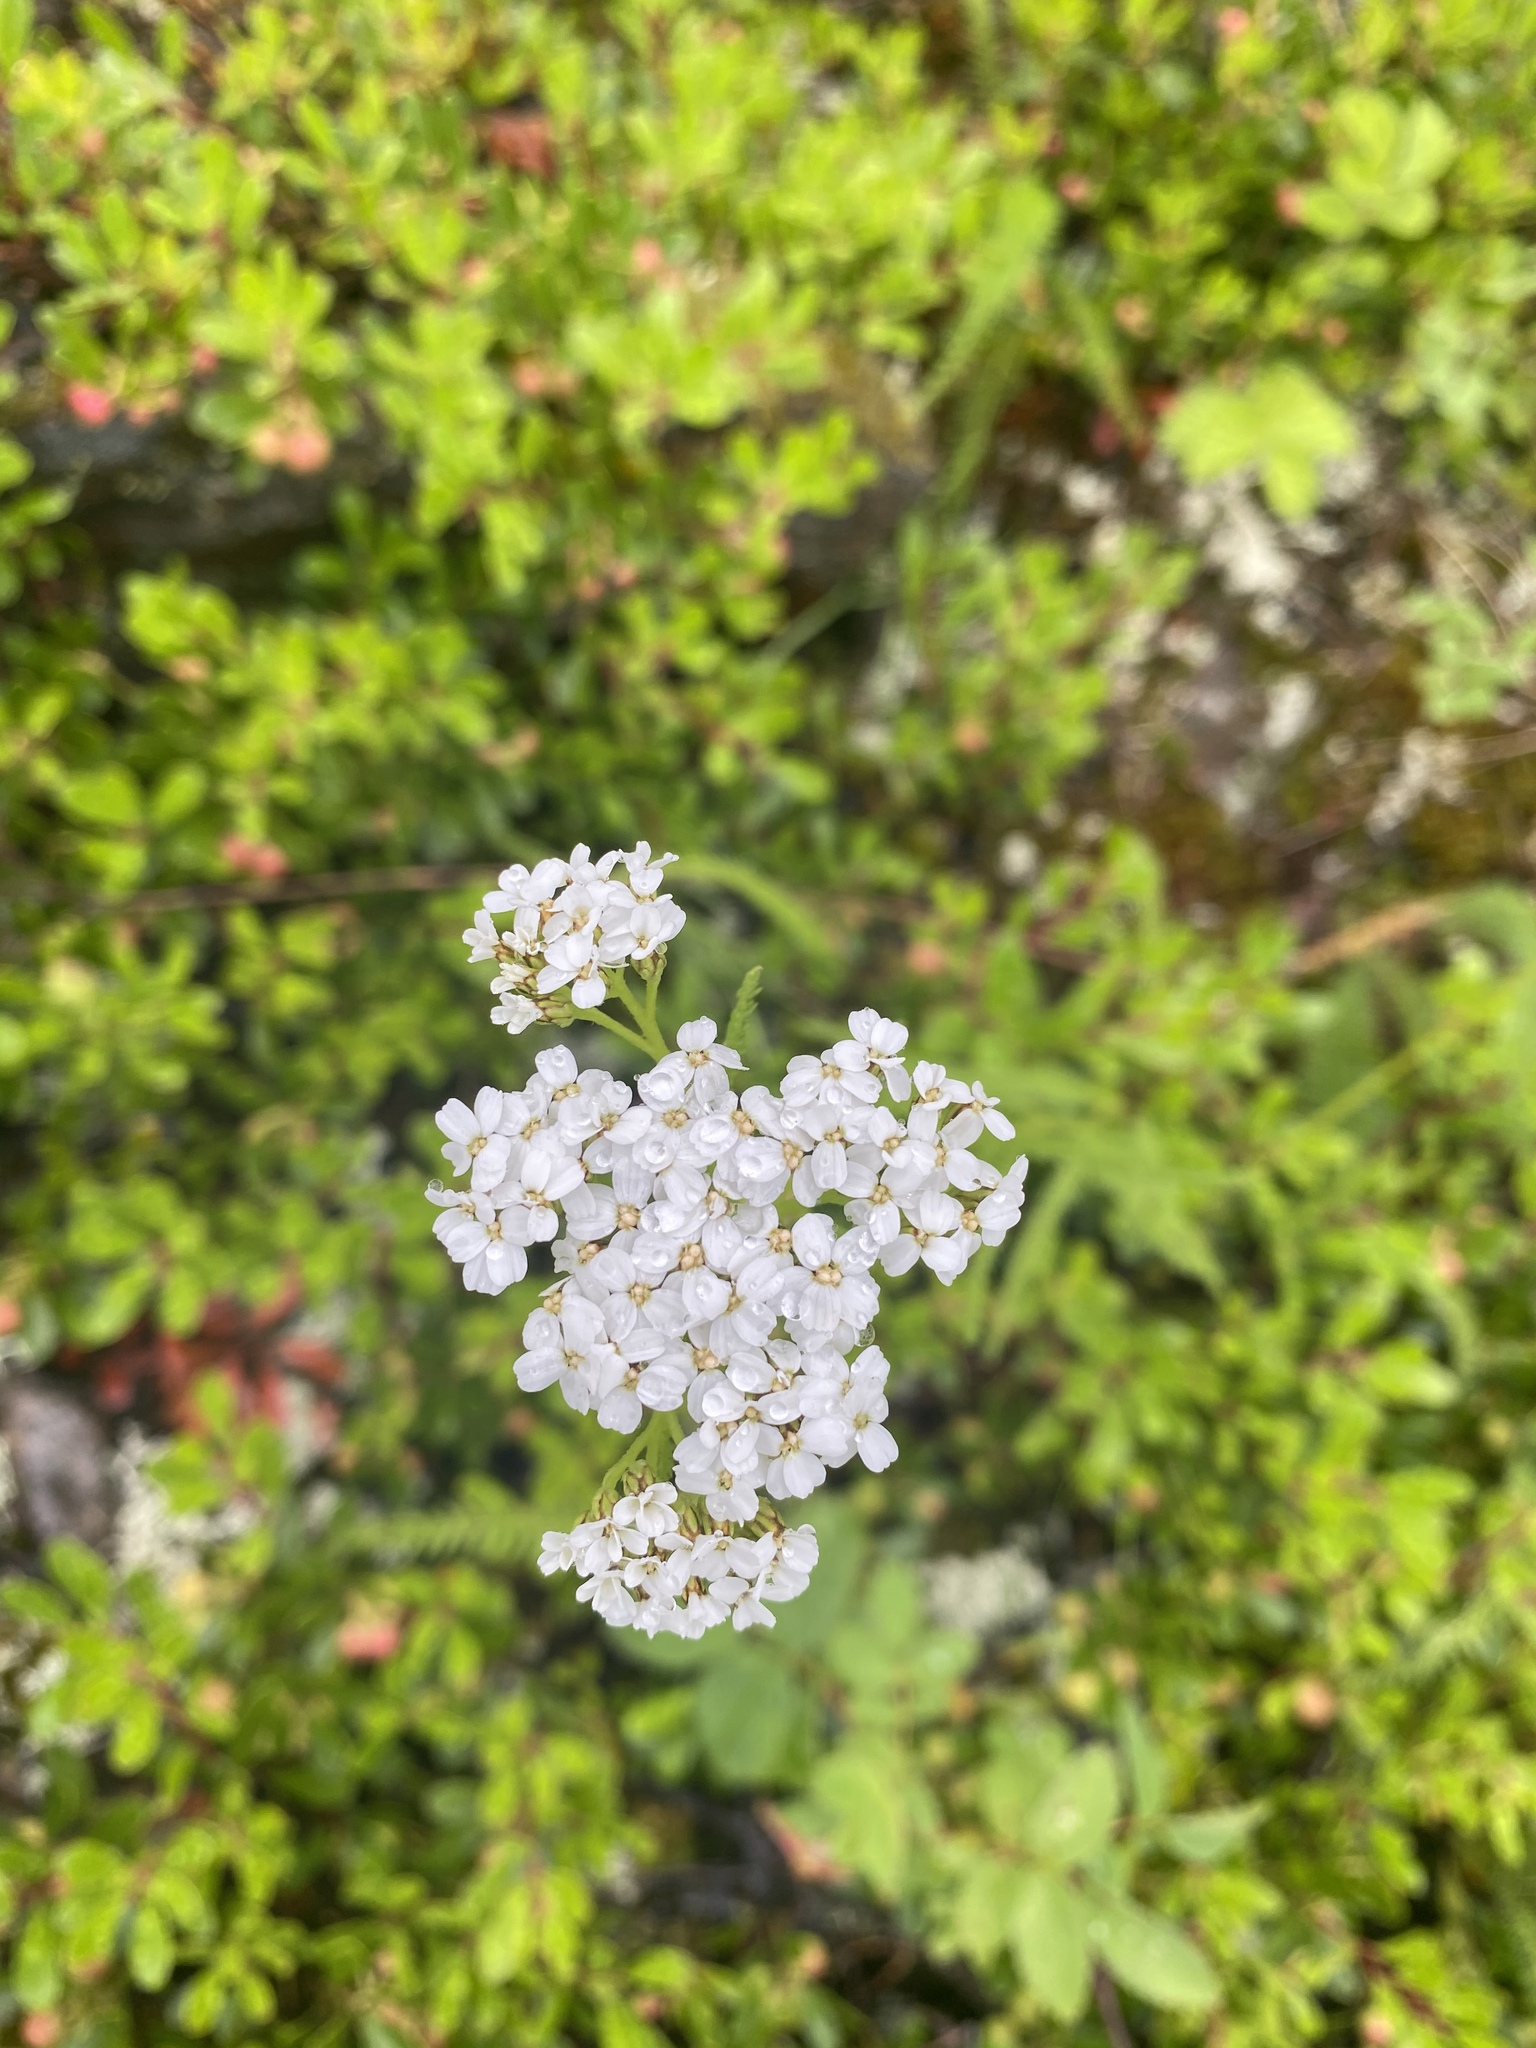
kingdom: Plantae
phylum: Tracheophyta
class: Magnoliopsida
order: Asterales
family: Asteraceae
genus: Achillea
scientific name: Achillea millefolium
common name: Yarrow
